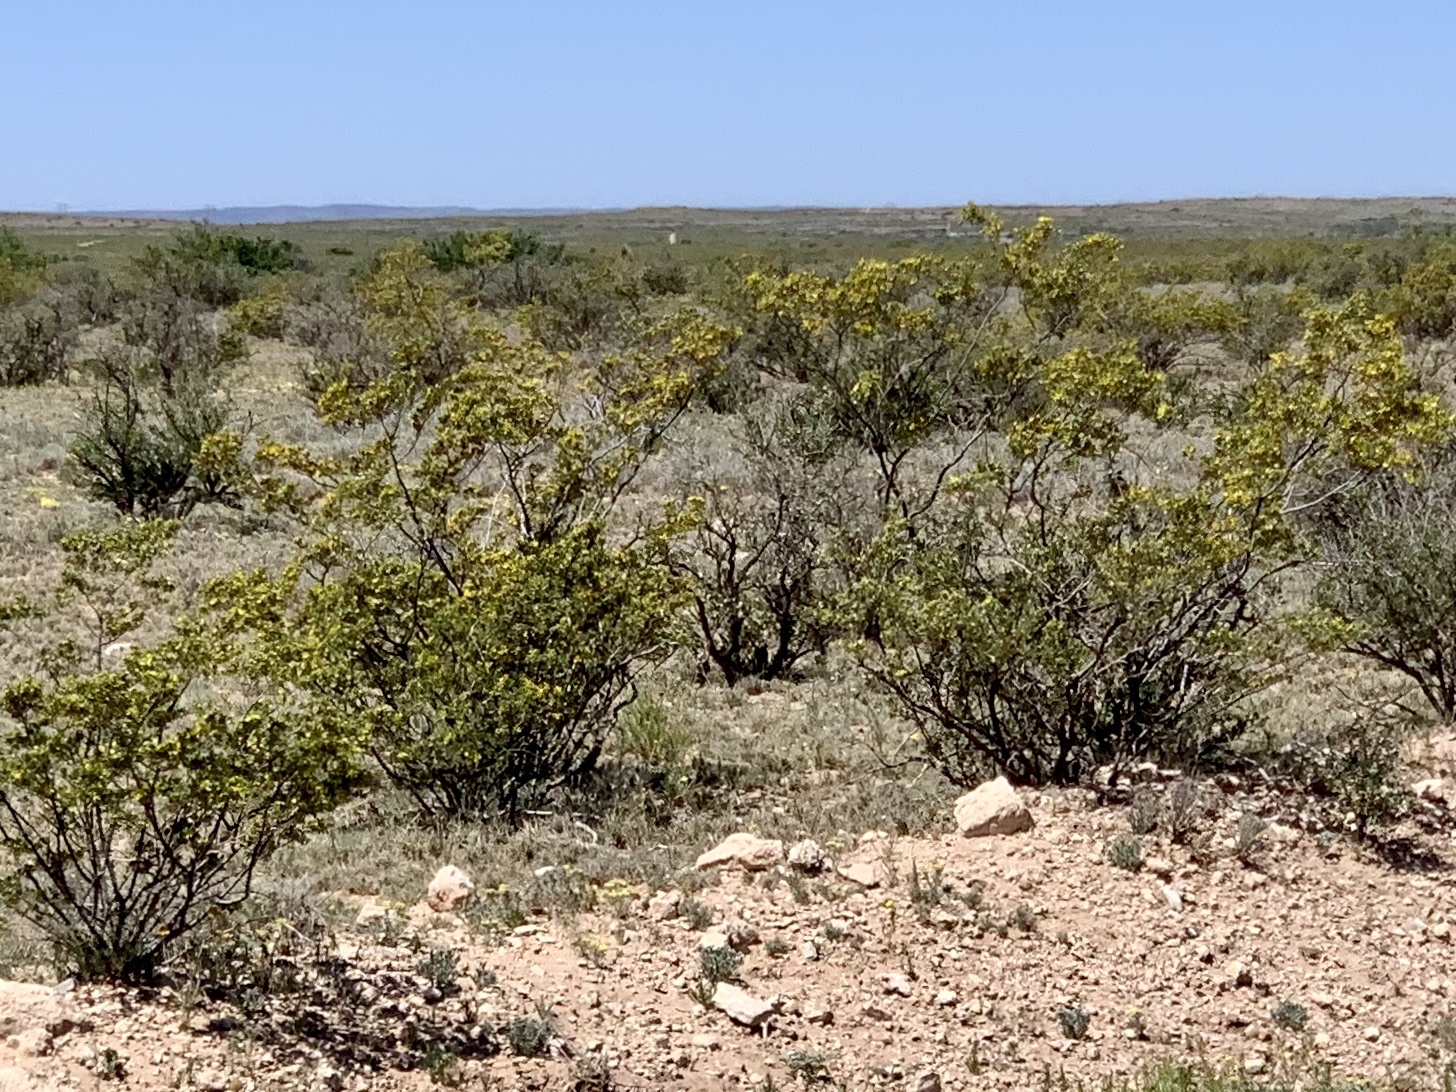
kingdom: Plantae
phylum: Tracheophyta
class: Magnoliopsida
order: Zygophyllales
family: Zygophyllaceae
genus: Larrea
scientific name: Larrea tridentata
